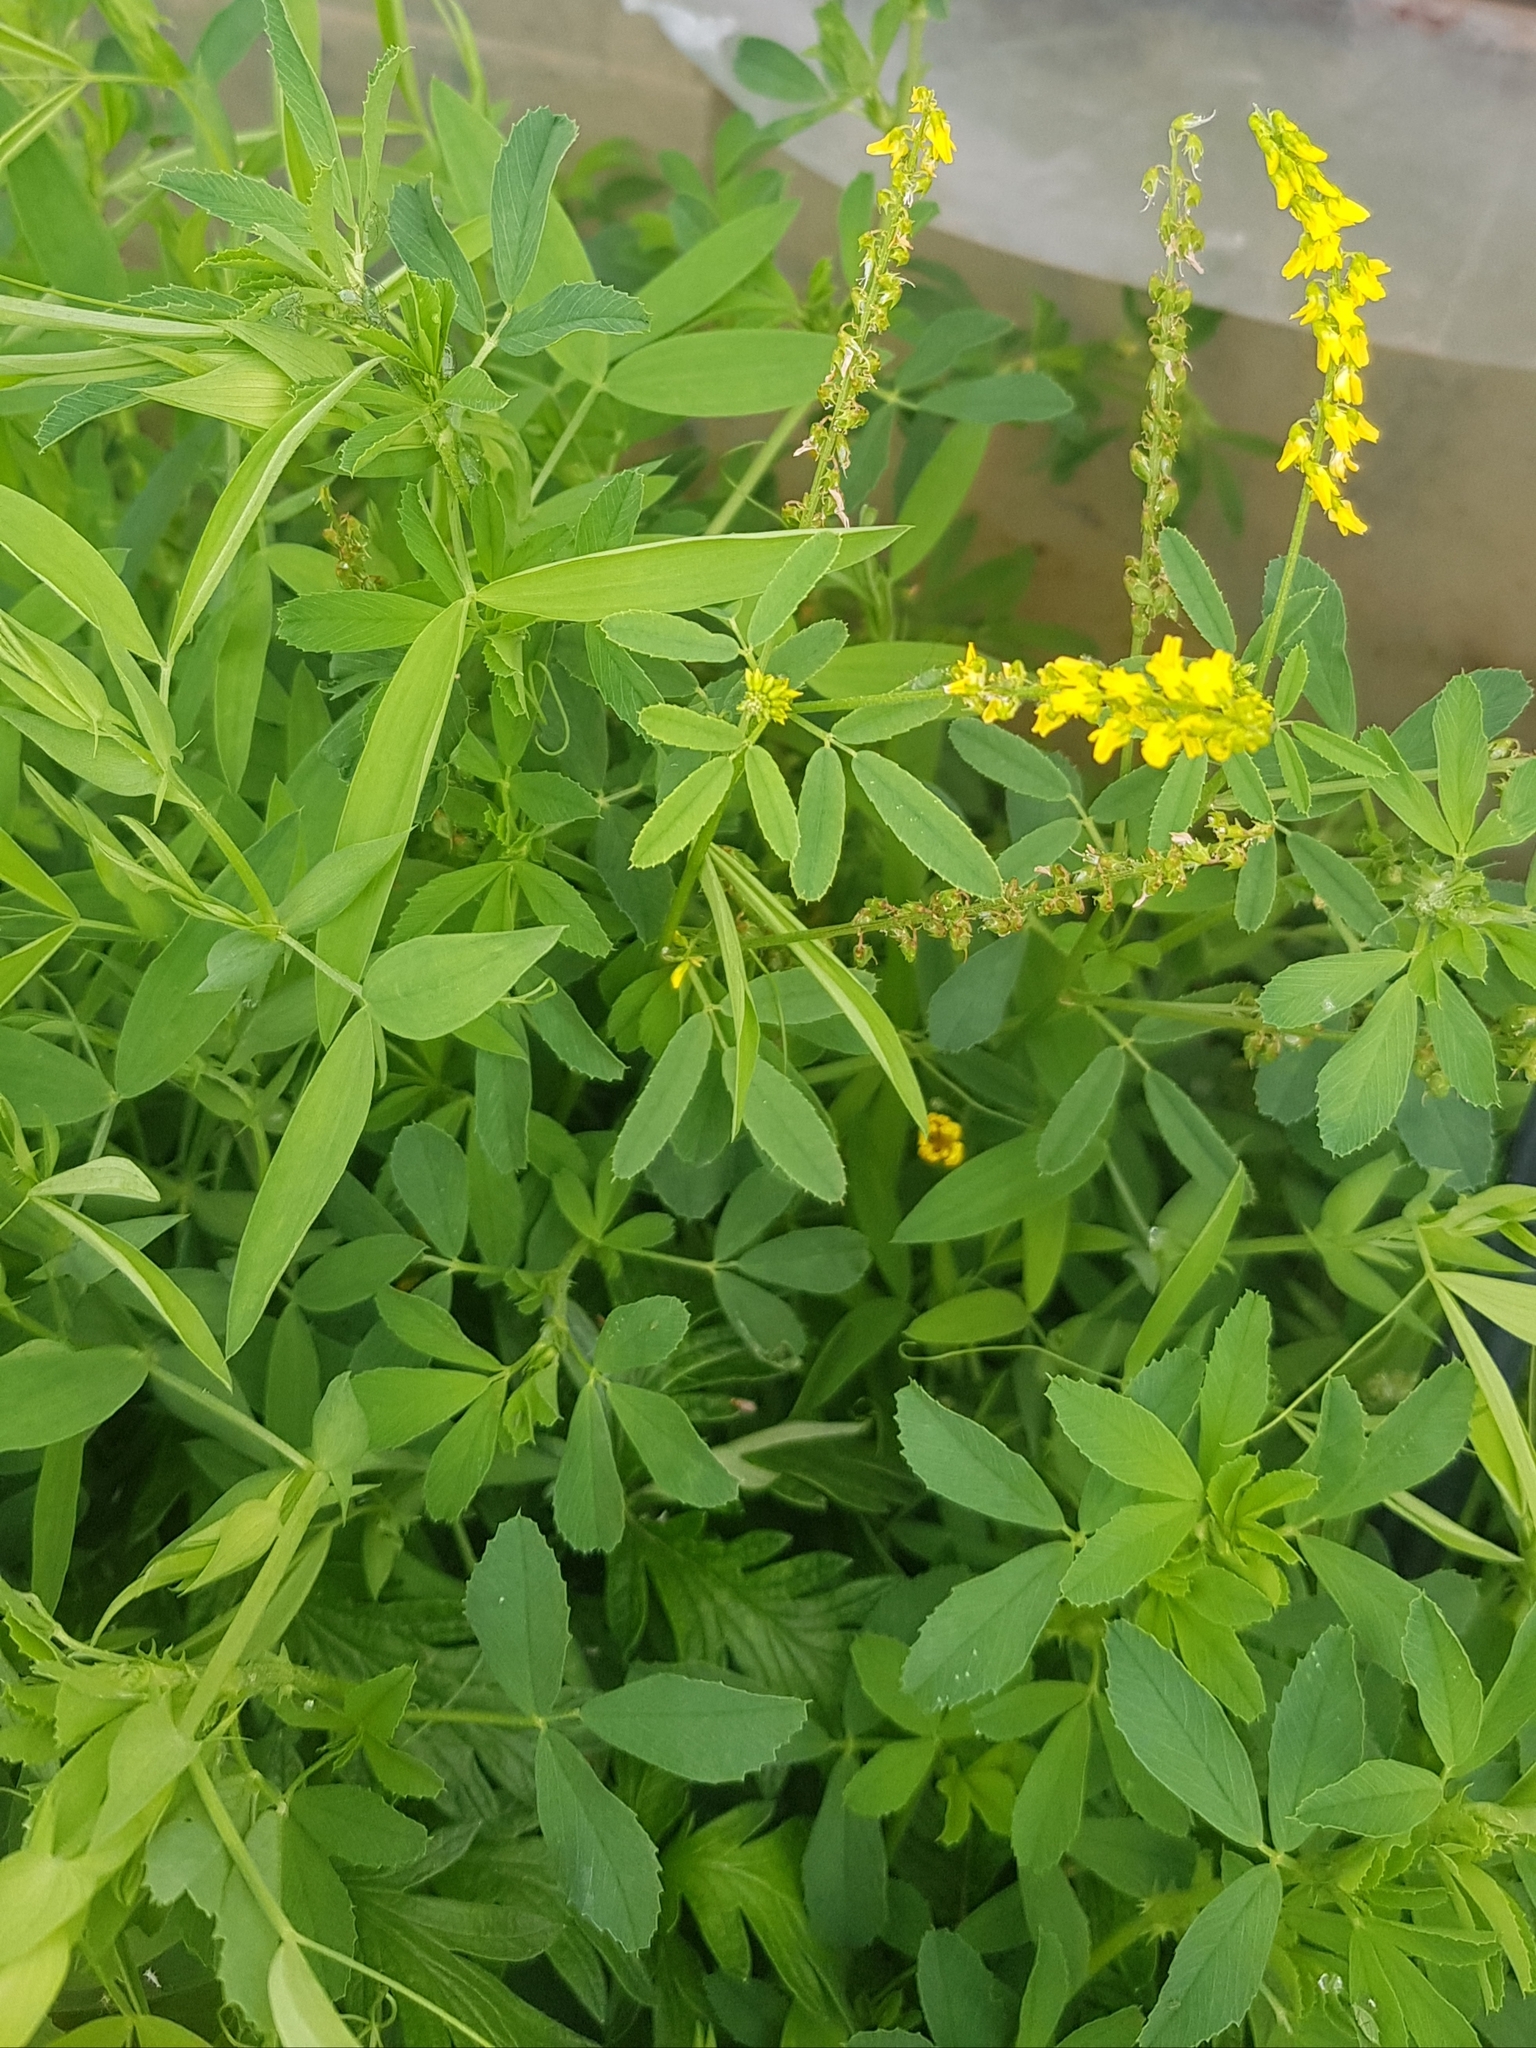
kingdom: Plantae
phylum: Tracheophyta
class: Magnoliopsida
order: Fabales
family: Fabaceae
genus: Melilotus
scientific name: Melilotus officinalis
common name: Sweetclover
